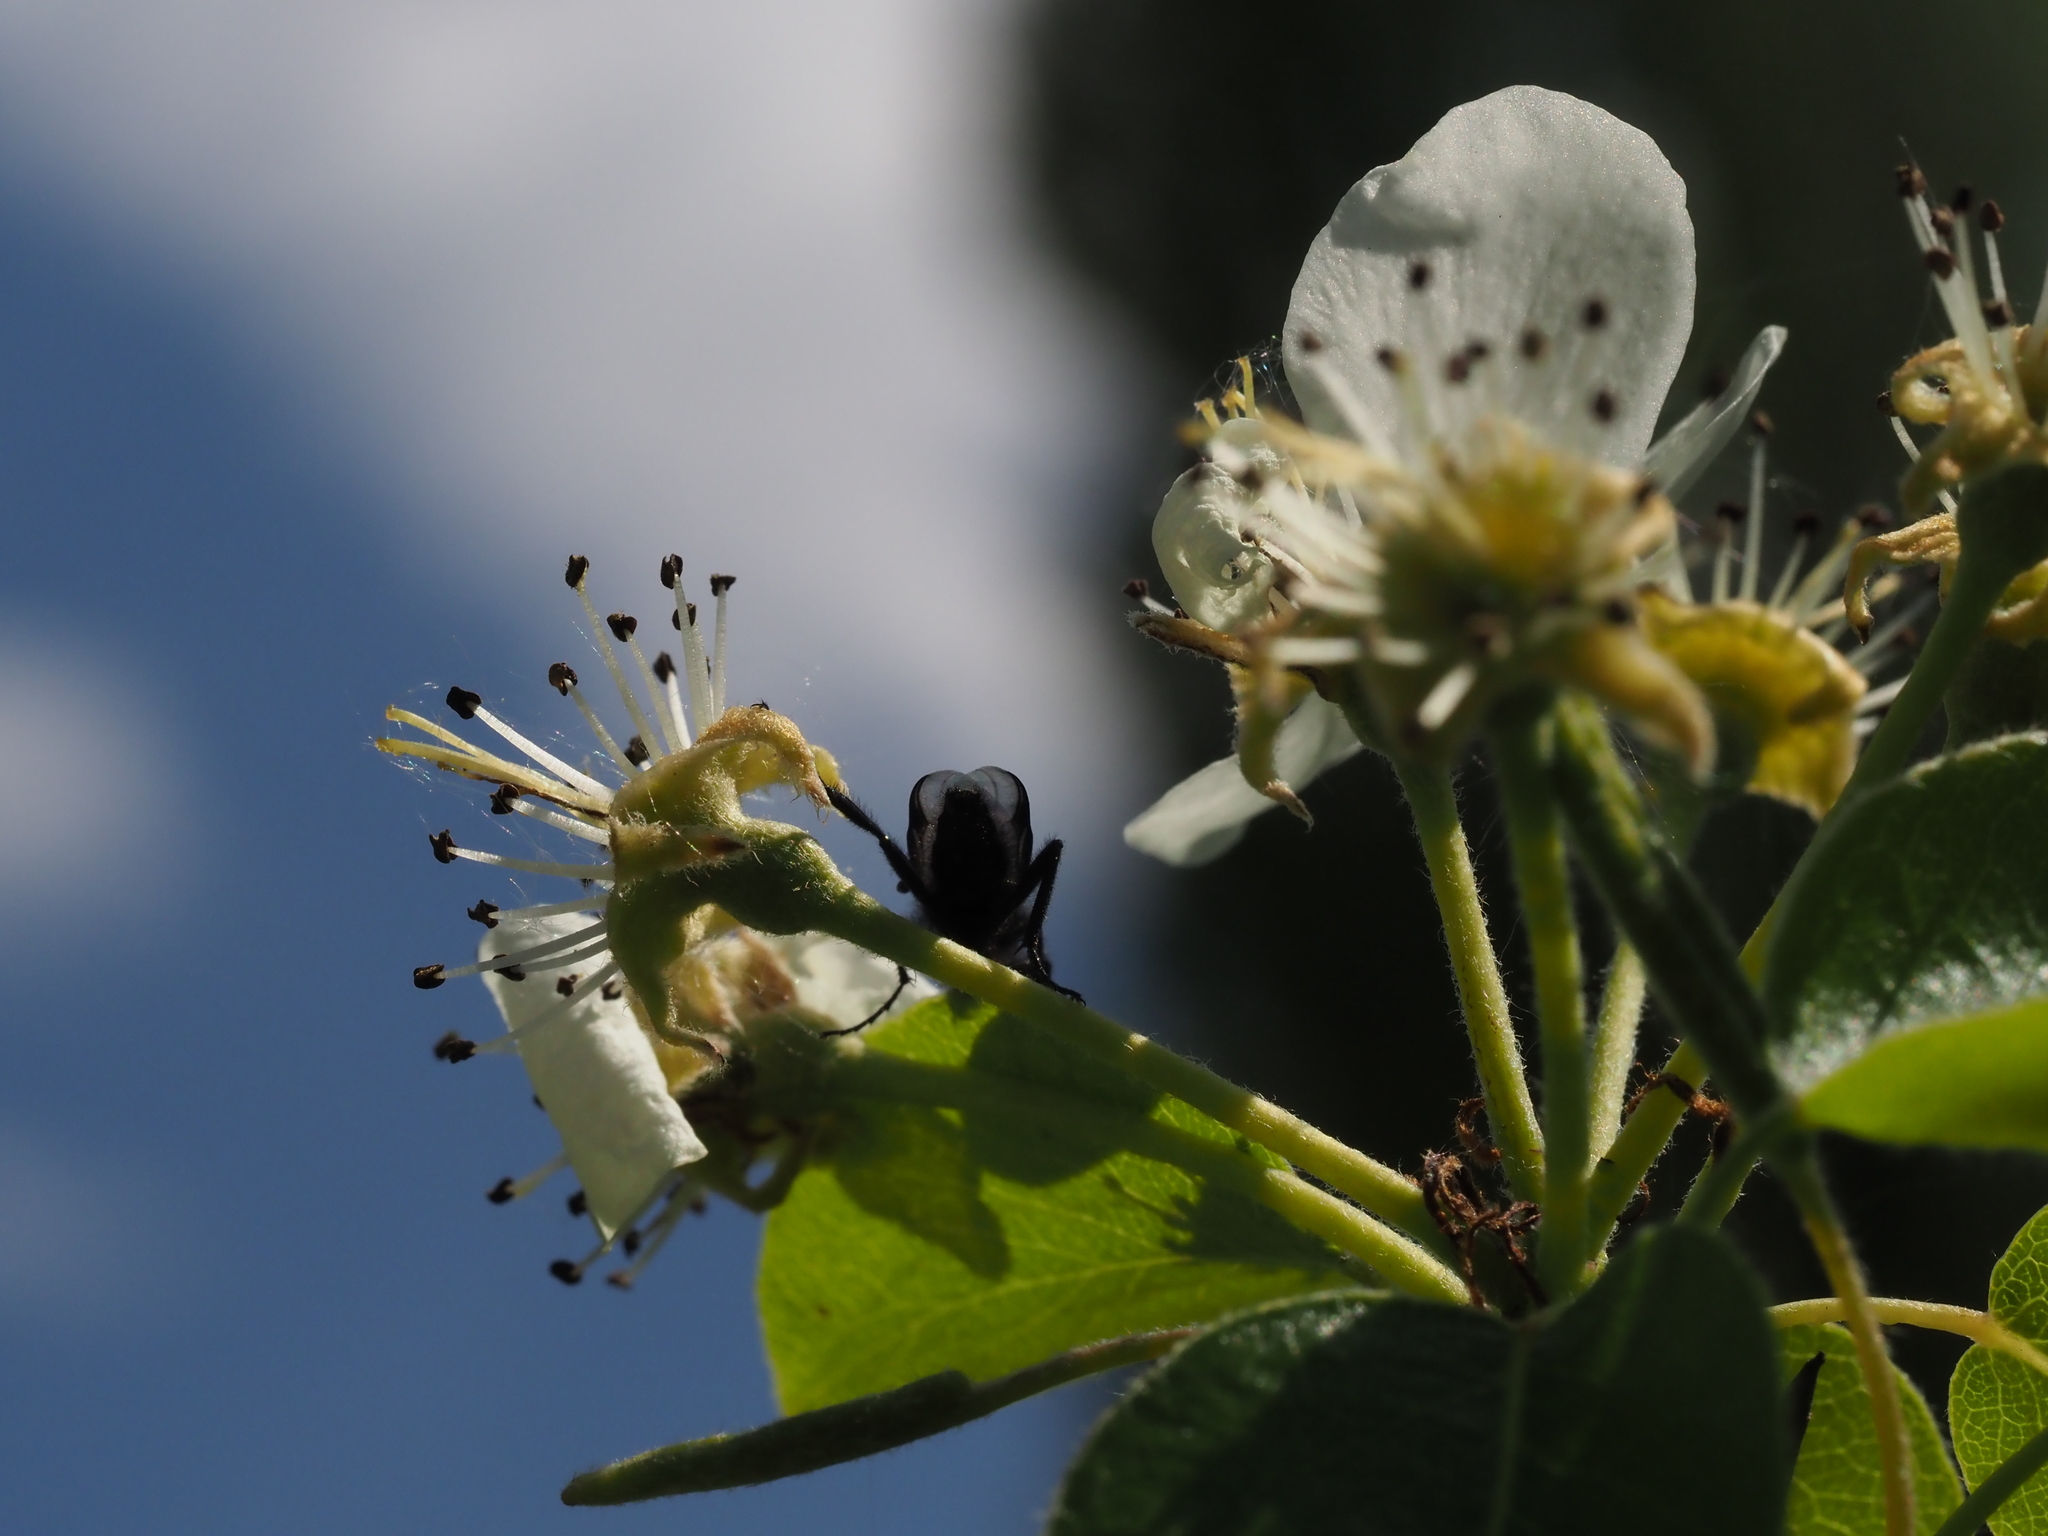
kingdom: Animalia
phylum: Arthropoda
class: Insecta
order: Diptera
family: Bibionidae
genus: Bibio
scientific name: Bibio marci
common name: St marks fly
